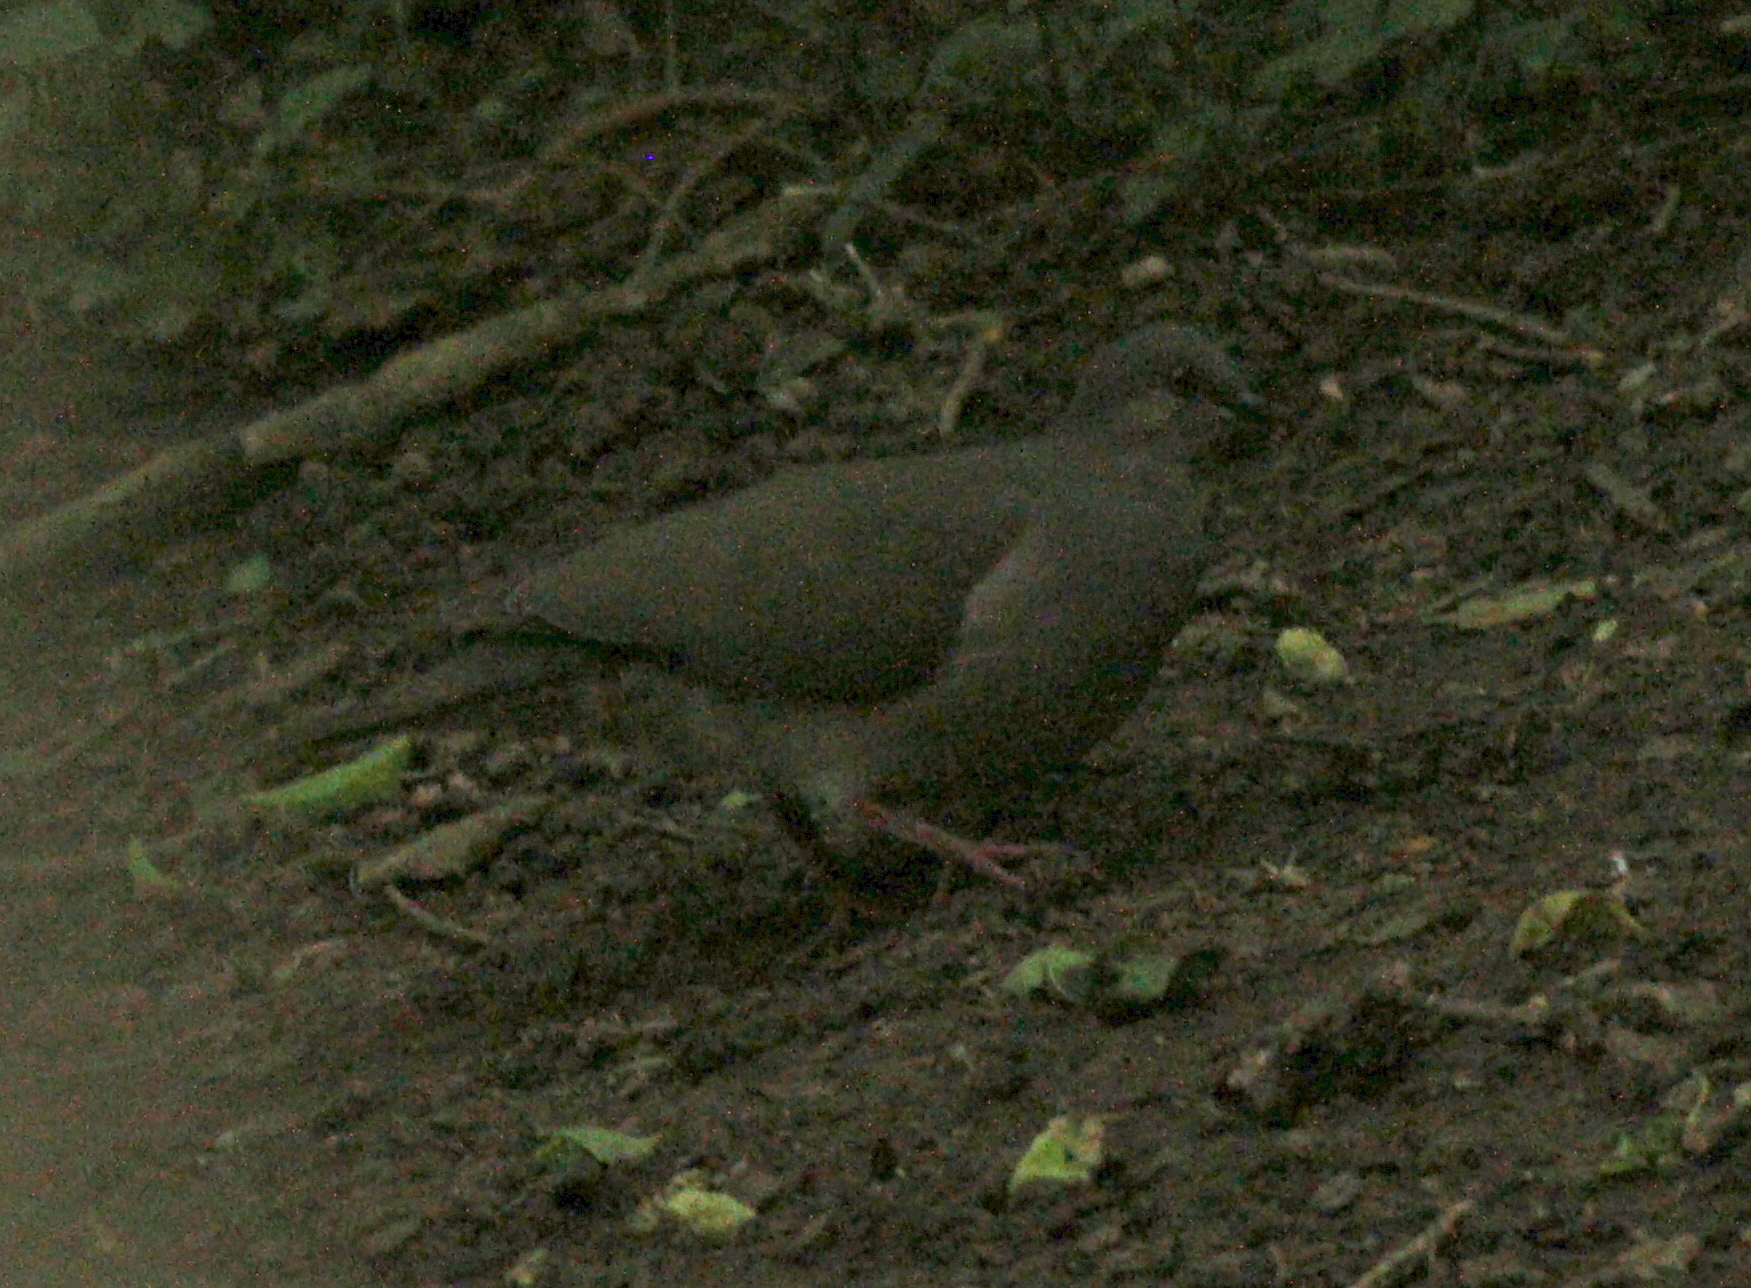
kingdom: Animalia
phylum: Chordata
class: Aves
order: Columbiformes
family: Columbidae
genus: Leptotila
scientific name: Leptotila verreauxi
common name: White-tipped dove
